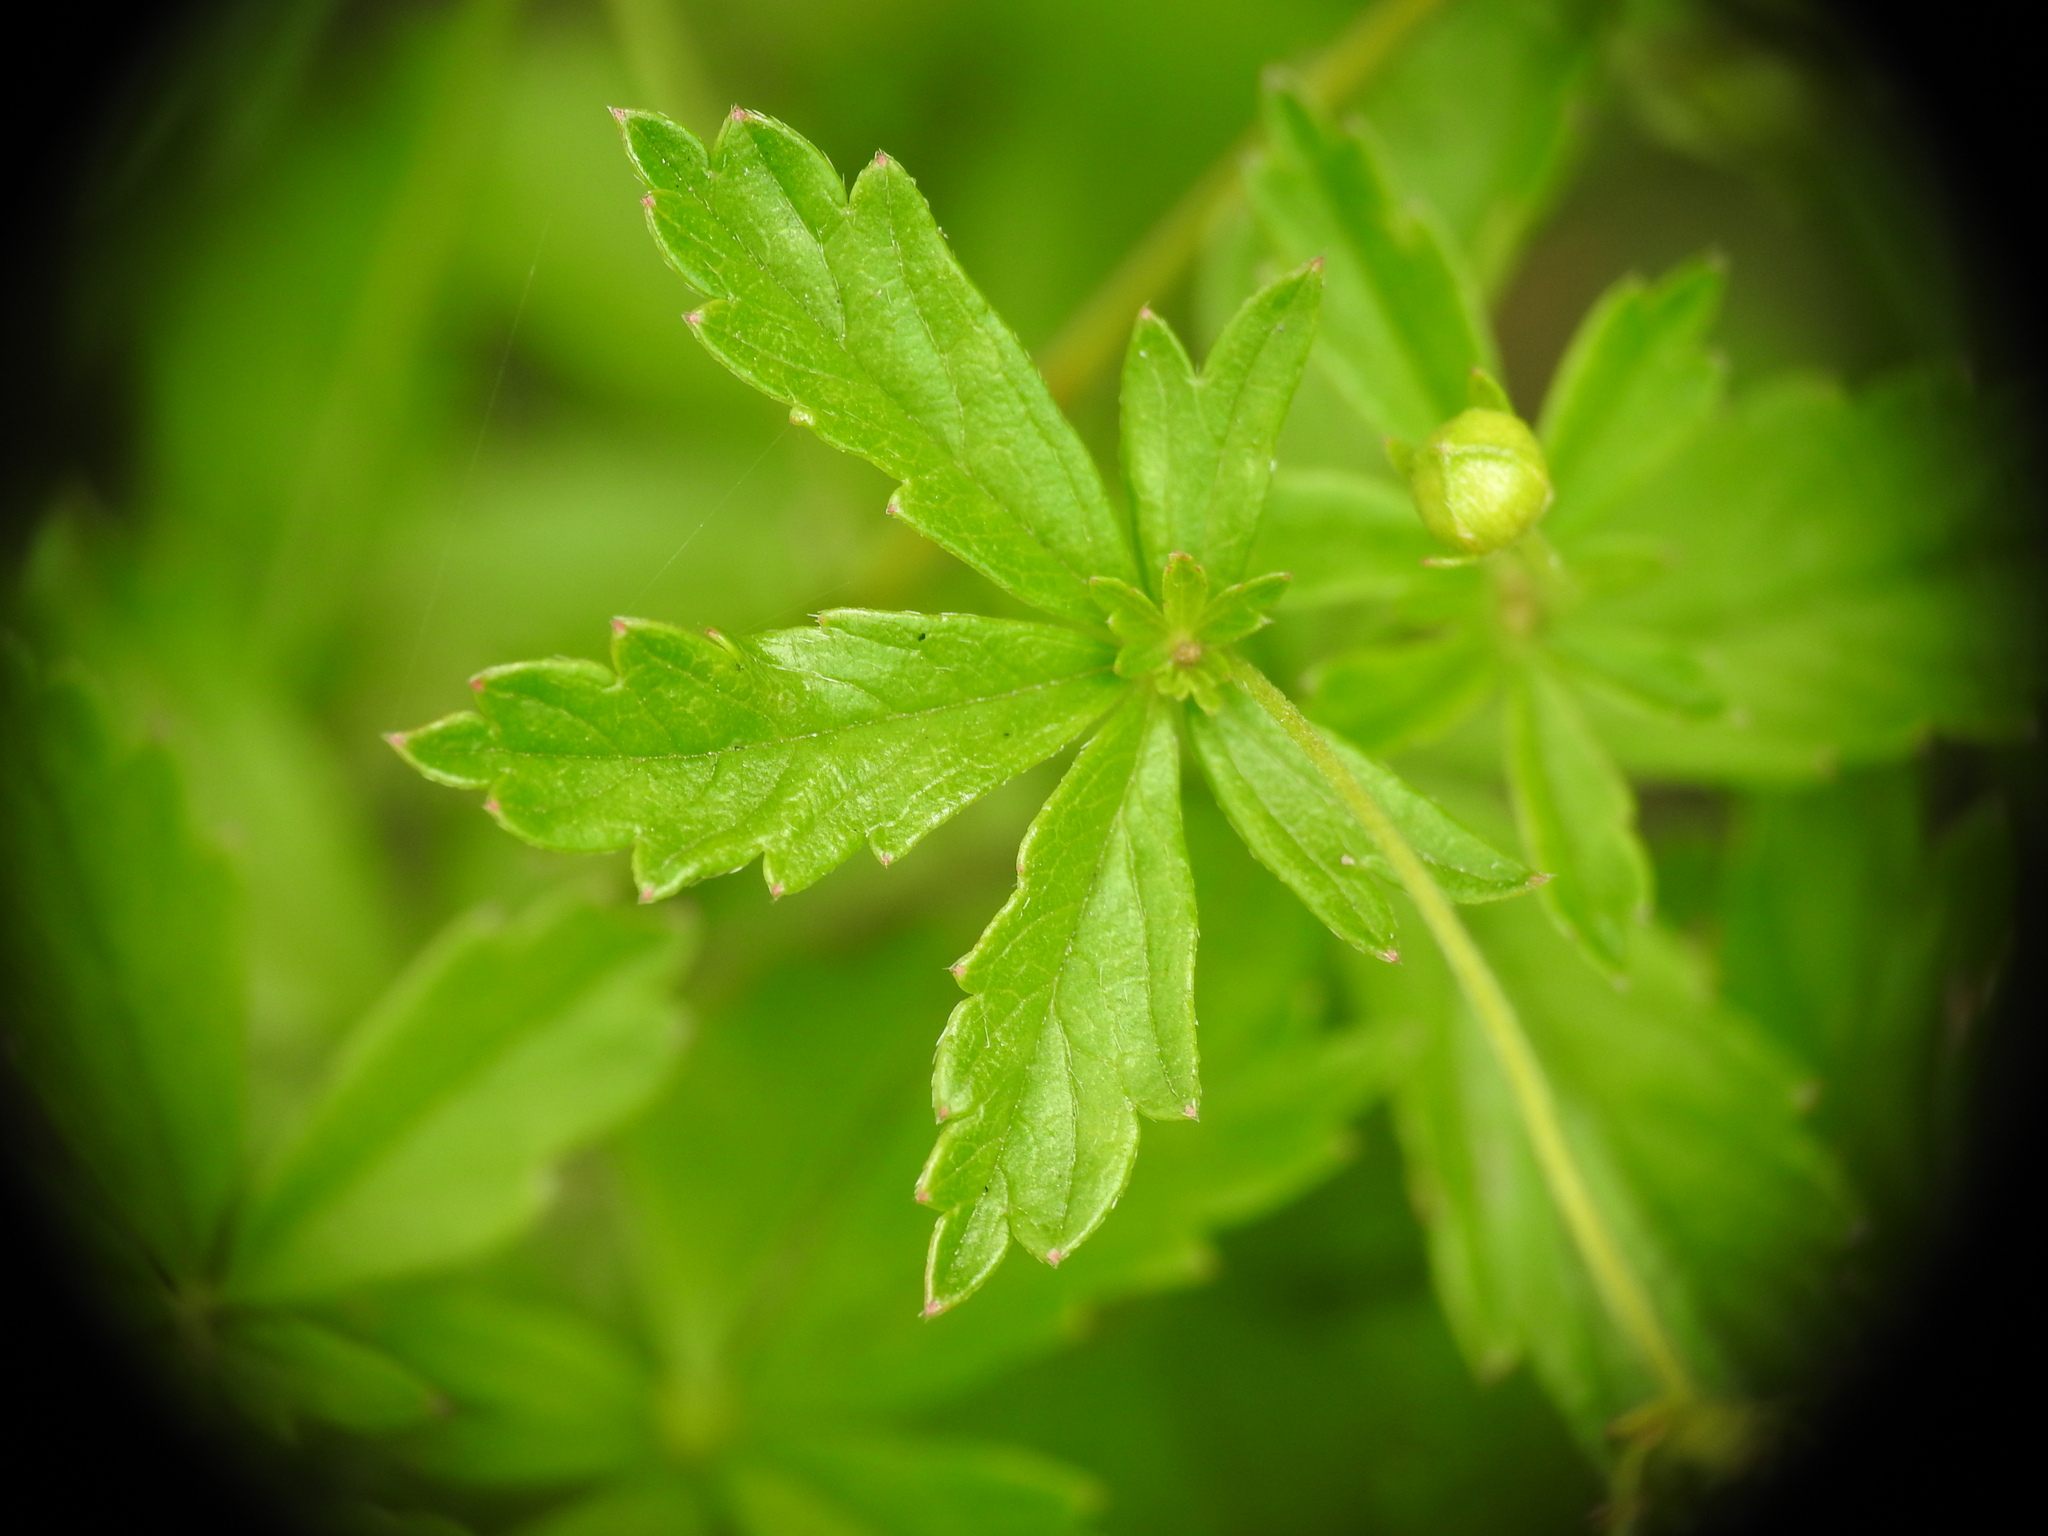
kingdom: Plantae
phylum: Tracheophyta
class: Magnoliopsida
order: Rosales
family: Rosaceae
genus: Potentilla
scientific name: Potentilla erecta
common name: Tormentil
